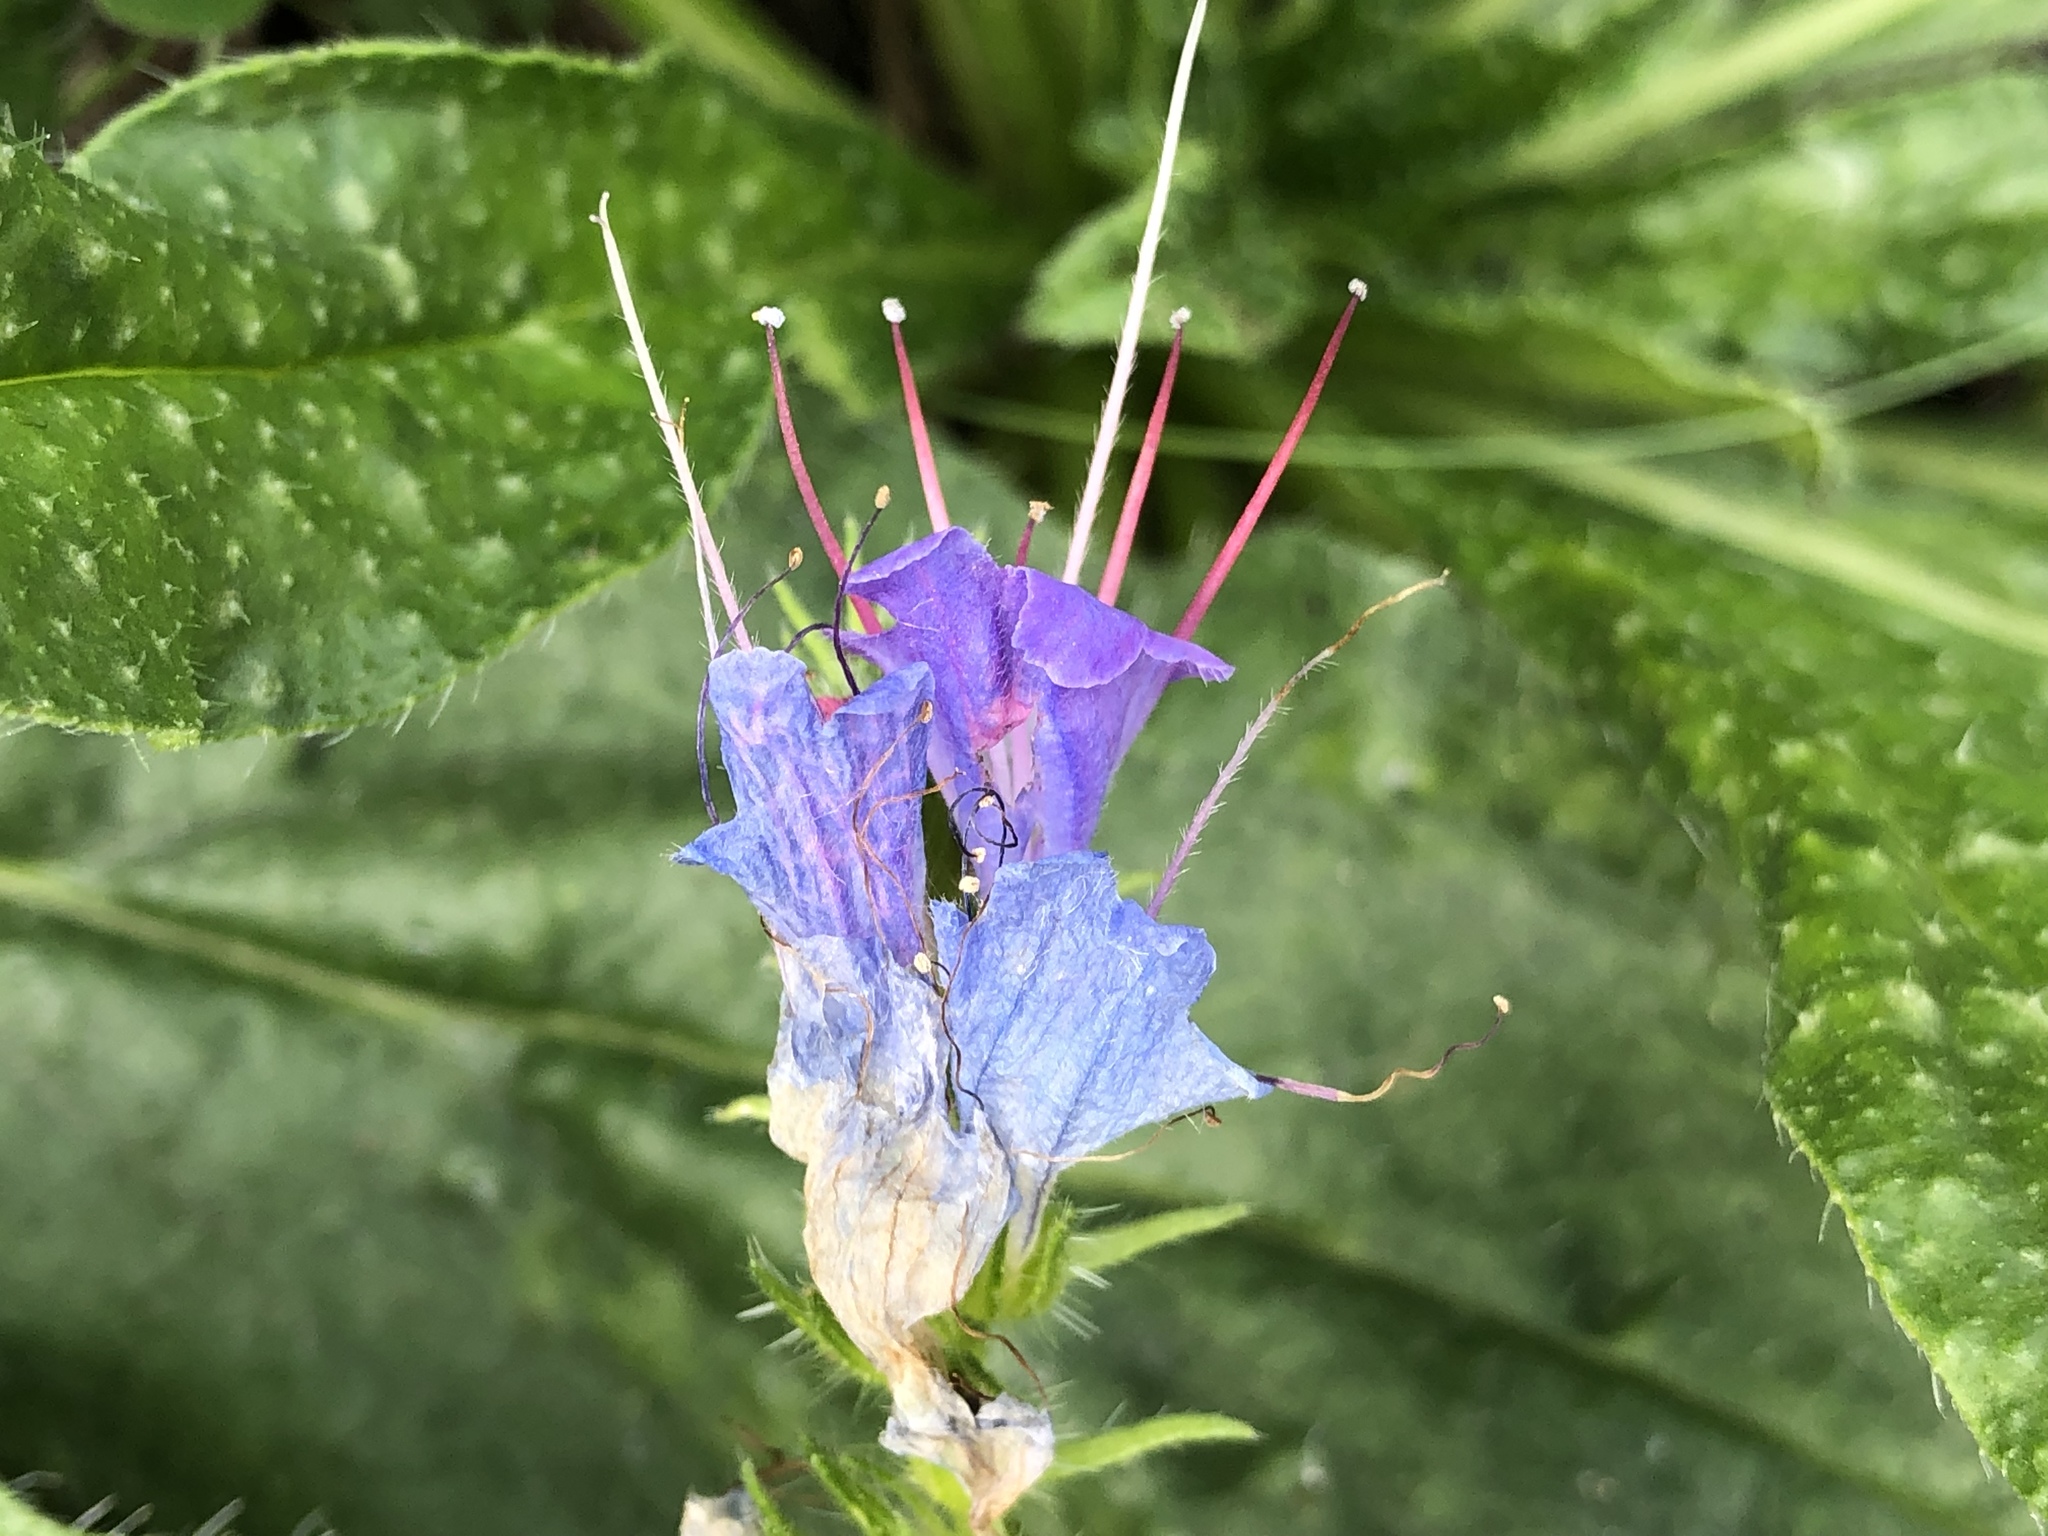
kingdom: Plantae
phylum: Tracheophyta
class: Magnoliopsida
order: Boraginales
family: Boraginaceae
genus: Echium
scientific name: Echium vulgare
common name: Common viper's bugloss
